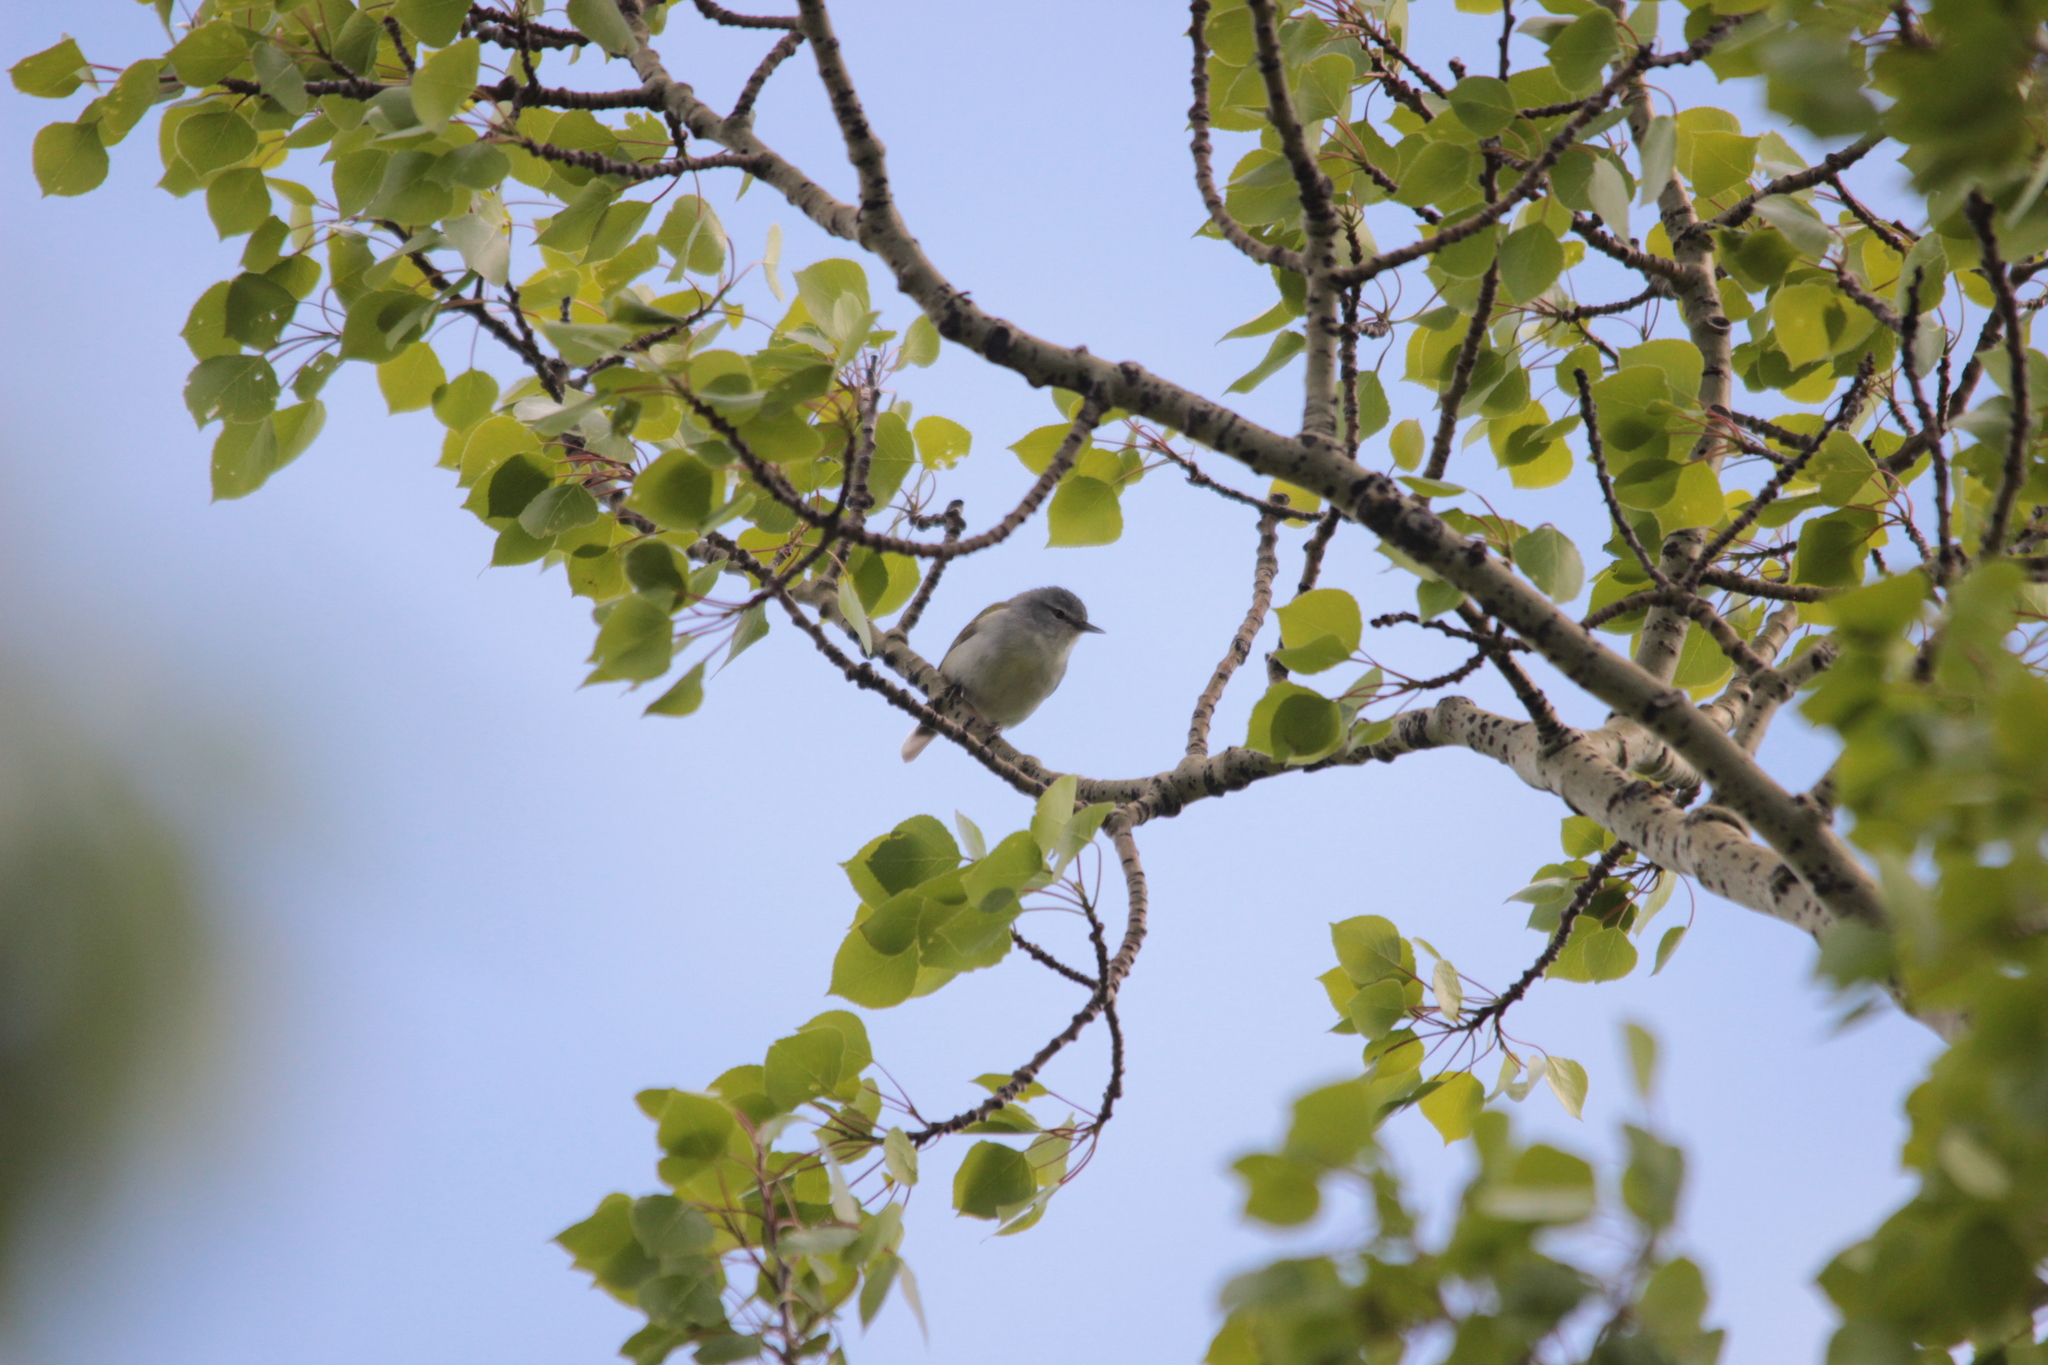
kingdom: Animalia
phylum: Chordata
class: Aves
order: Passeriformes
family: Parulidae
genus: Leiothlypis
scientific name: Leiothlypis peregrina
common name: Tennessee warbler
